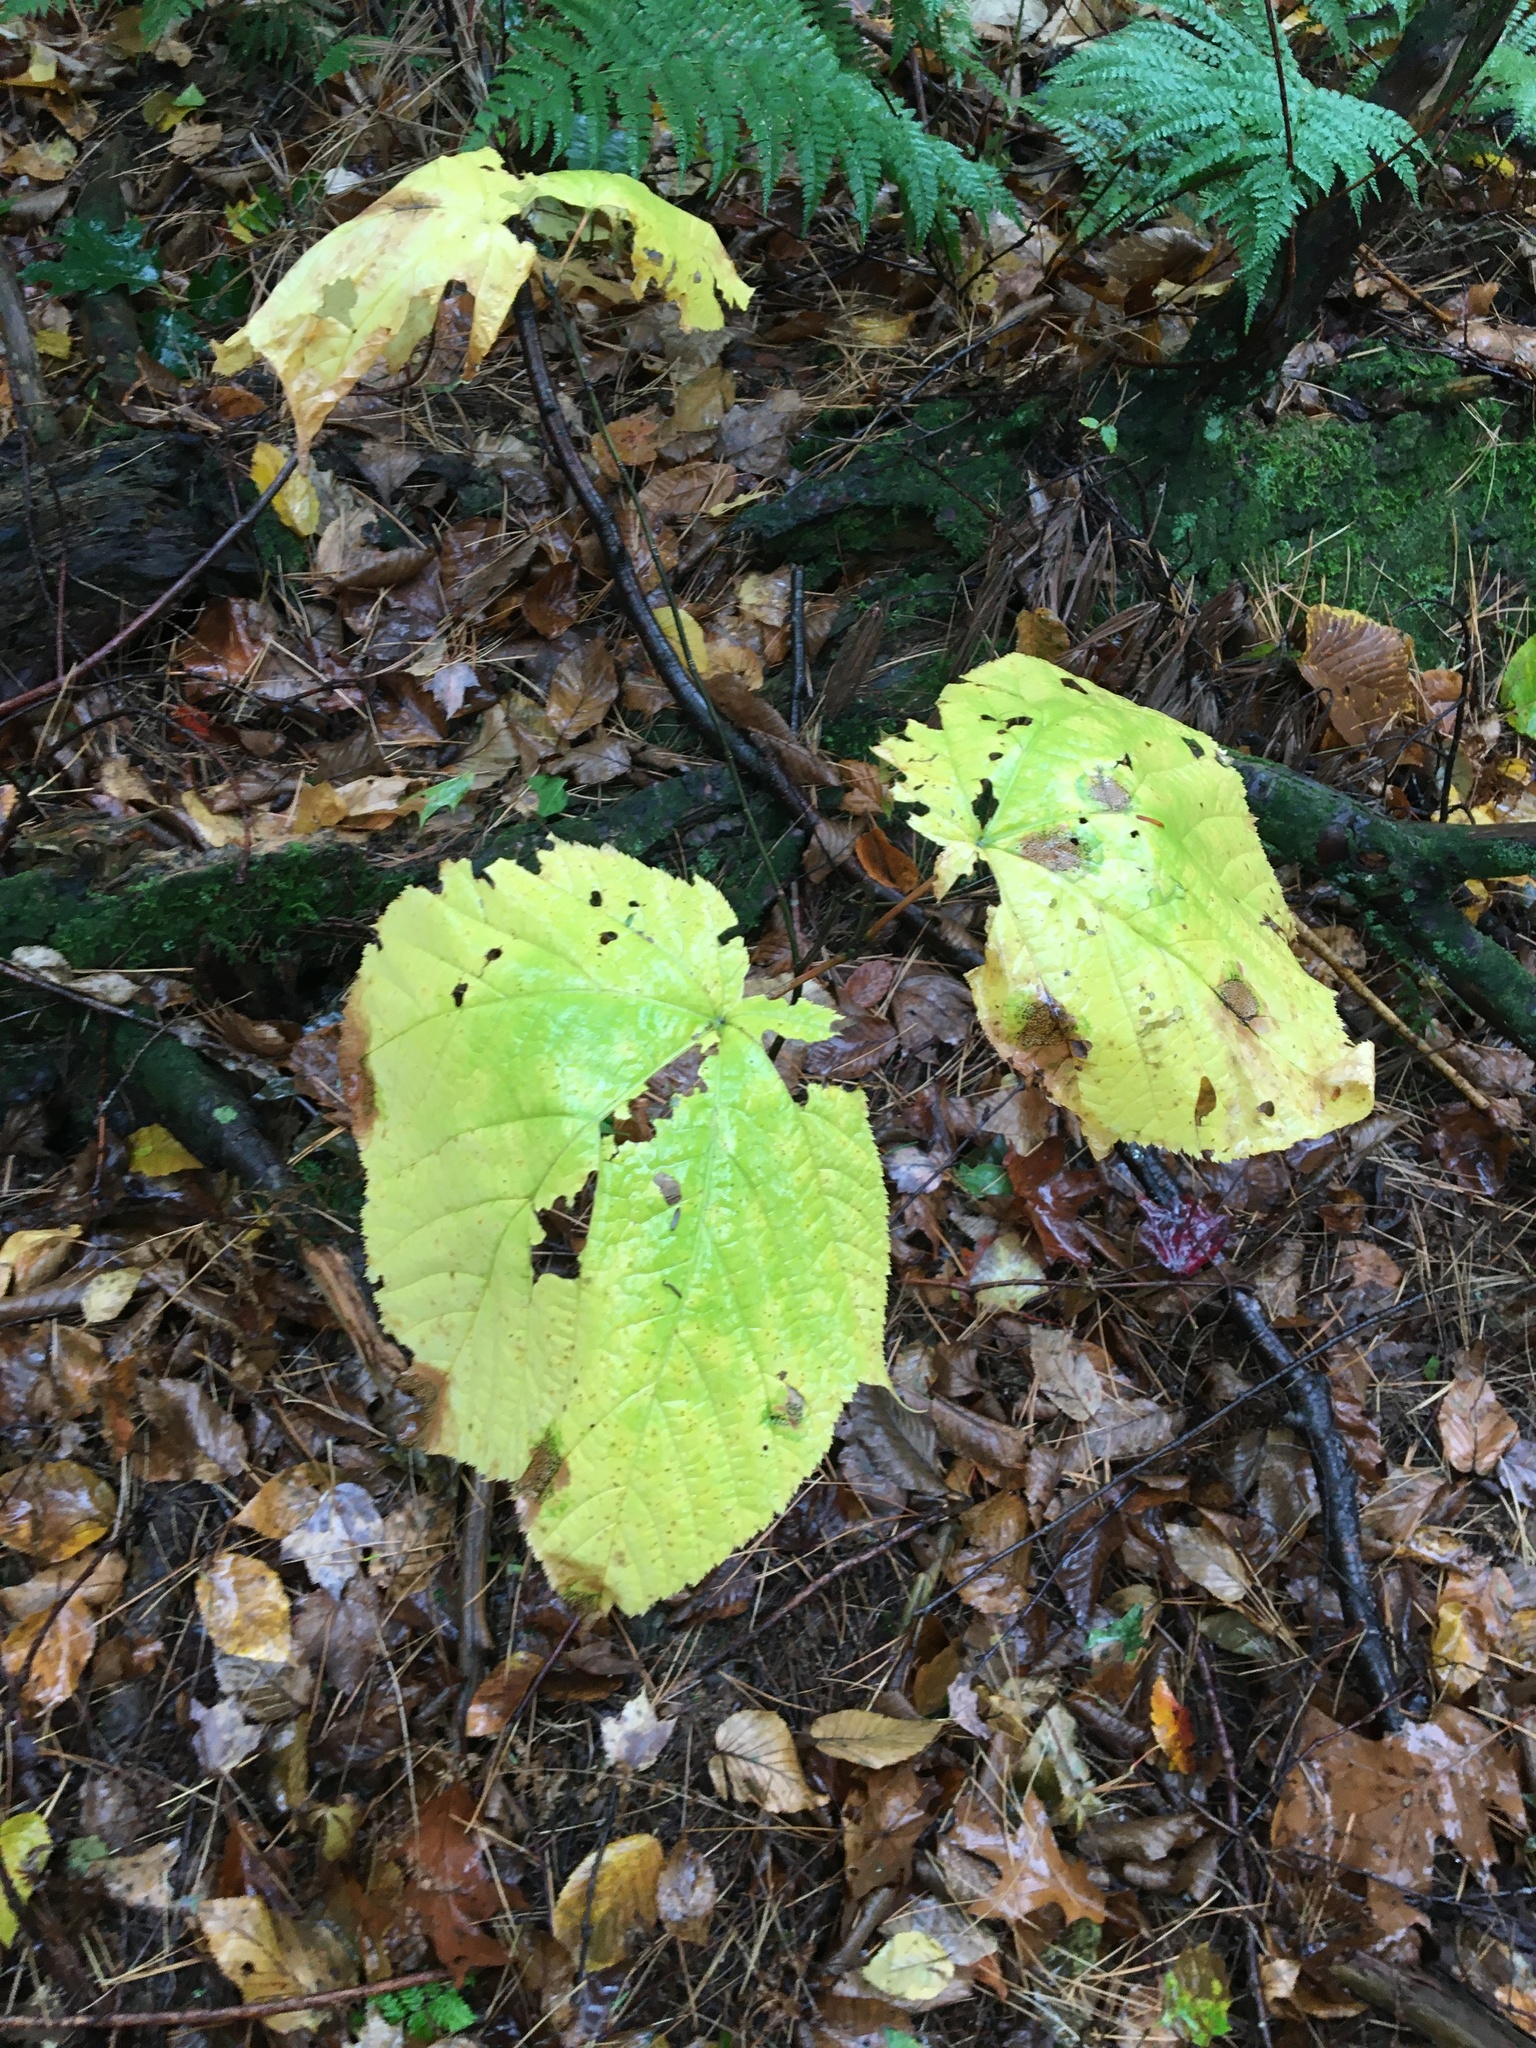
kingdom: Plantae
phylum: Tracheophyta
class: Magnoliopsida
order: Sapindales
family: Sapindaceae
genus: Acer
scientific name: Acer pensylvanicum
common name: Moosewood
